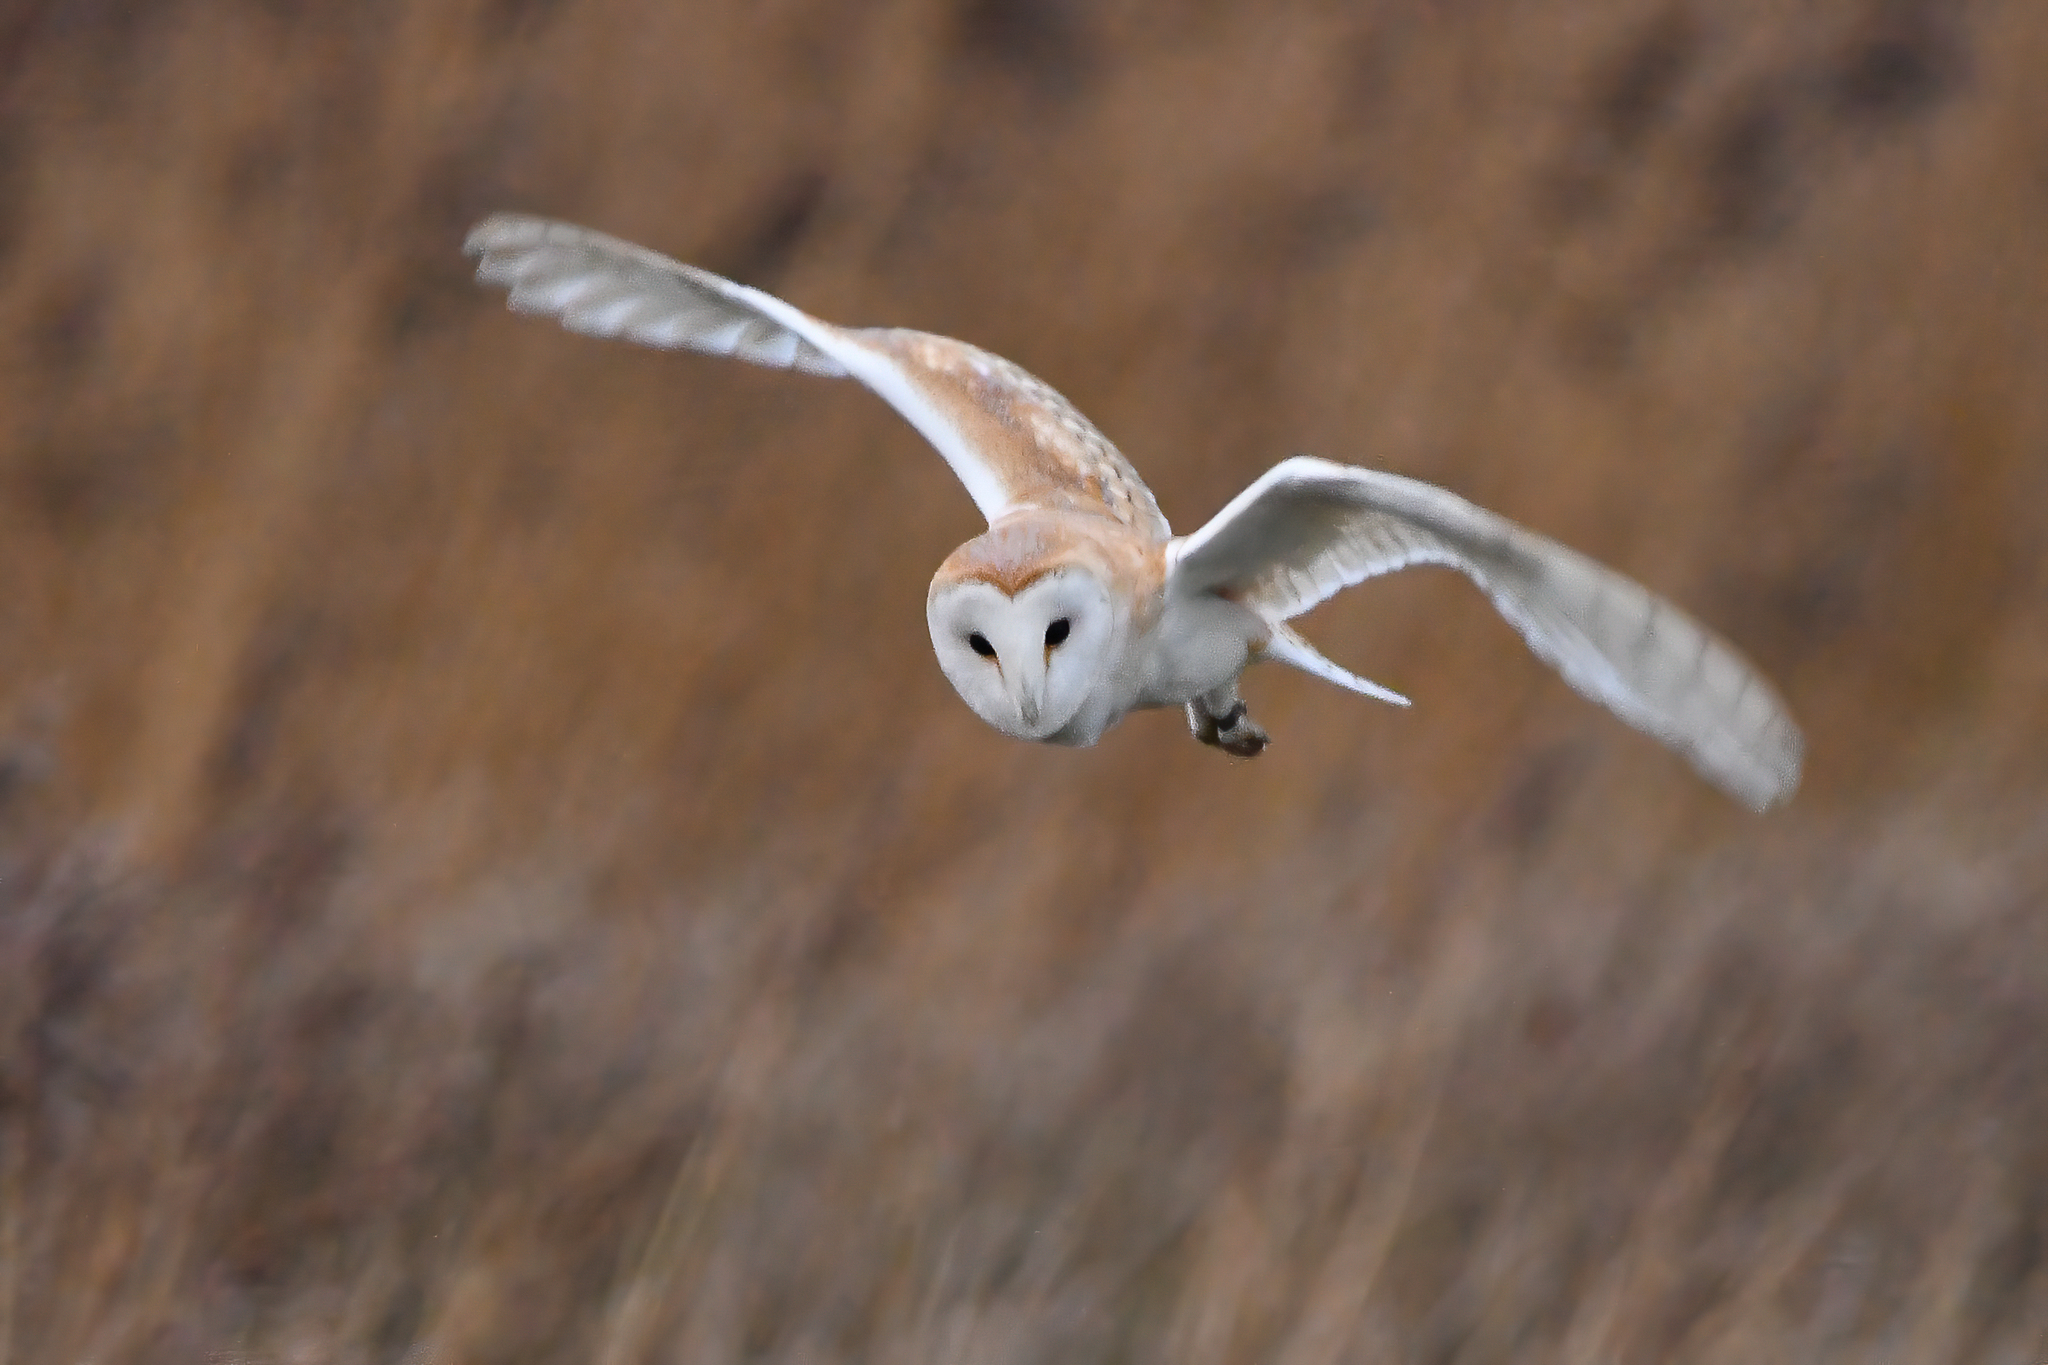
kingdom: Animalia
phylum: Chordata
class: Aves
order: Strigiformes
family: Tytonidae
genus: Tyto
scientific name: Tyto alba
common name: Barn owl
